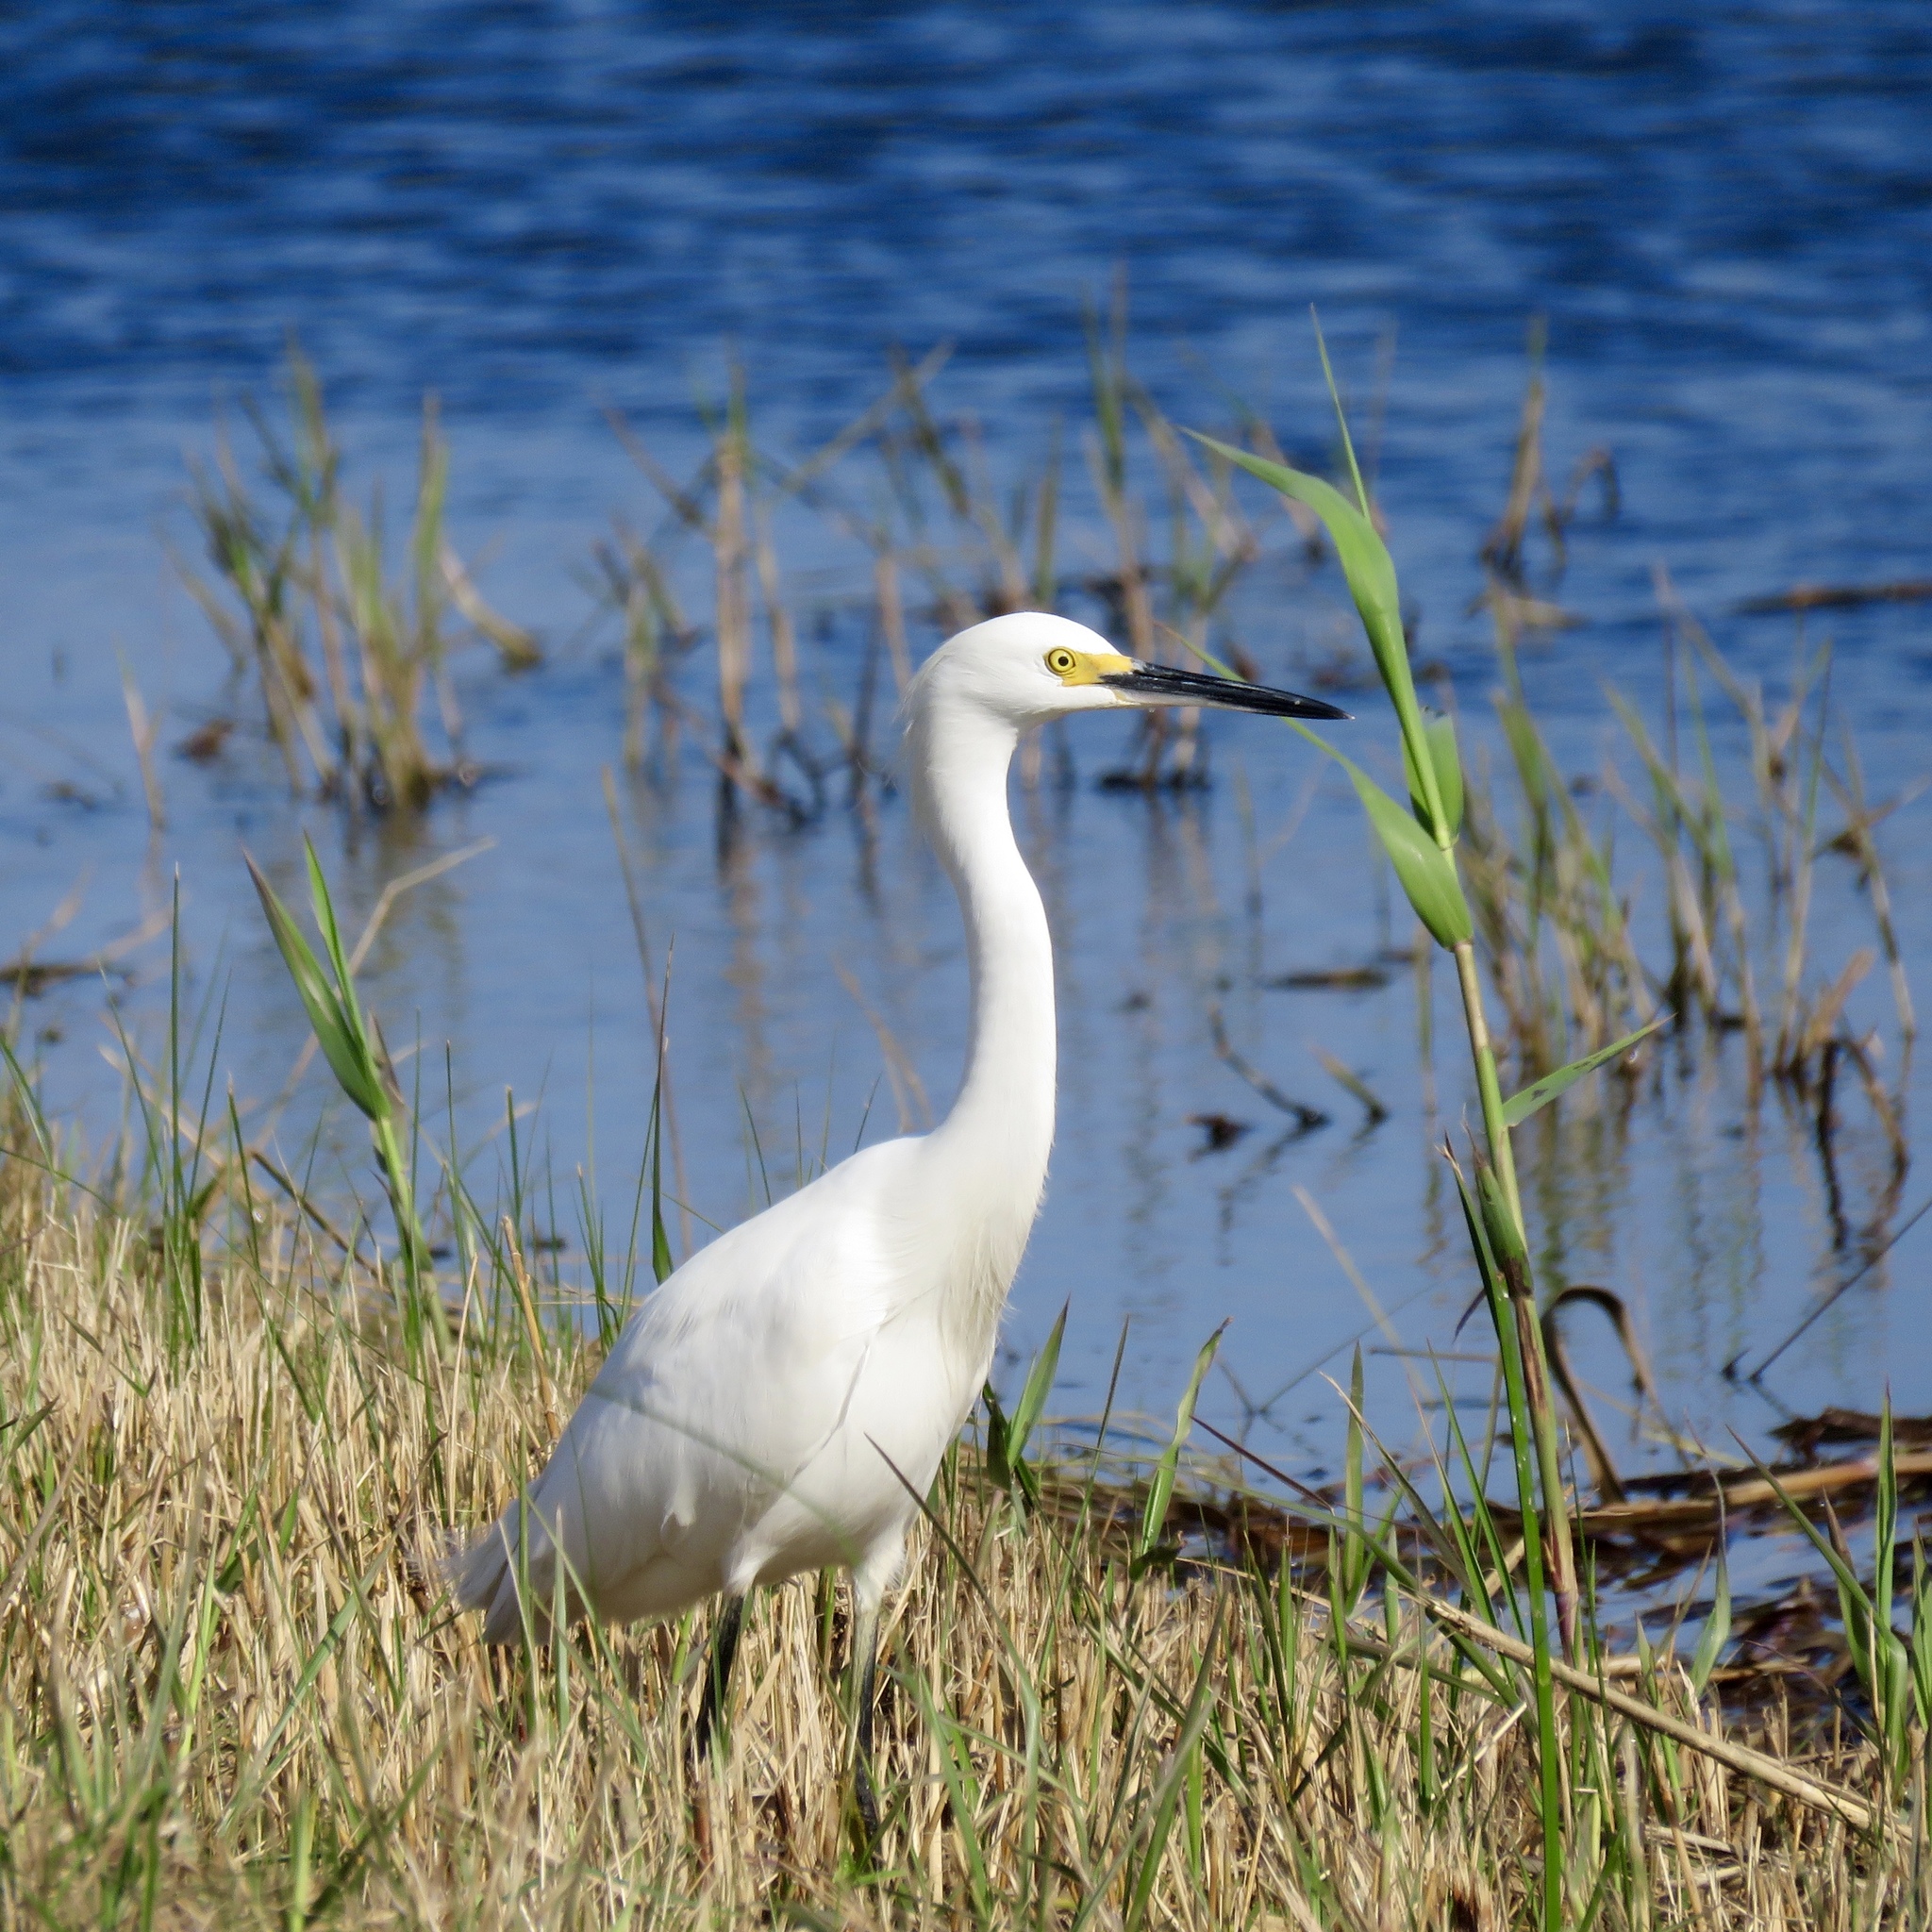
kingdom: Animalia
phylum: Chordata
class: Aves
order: Pelecaniformes
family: Ardeidae
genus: Egretta
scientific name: Egretta thula
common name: Snowy egret
